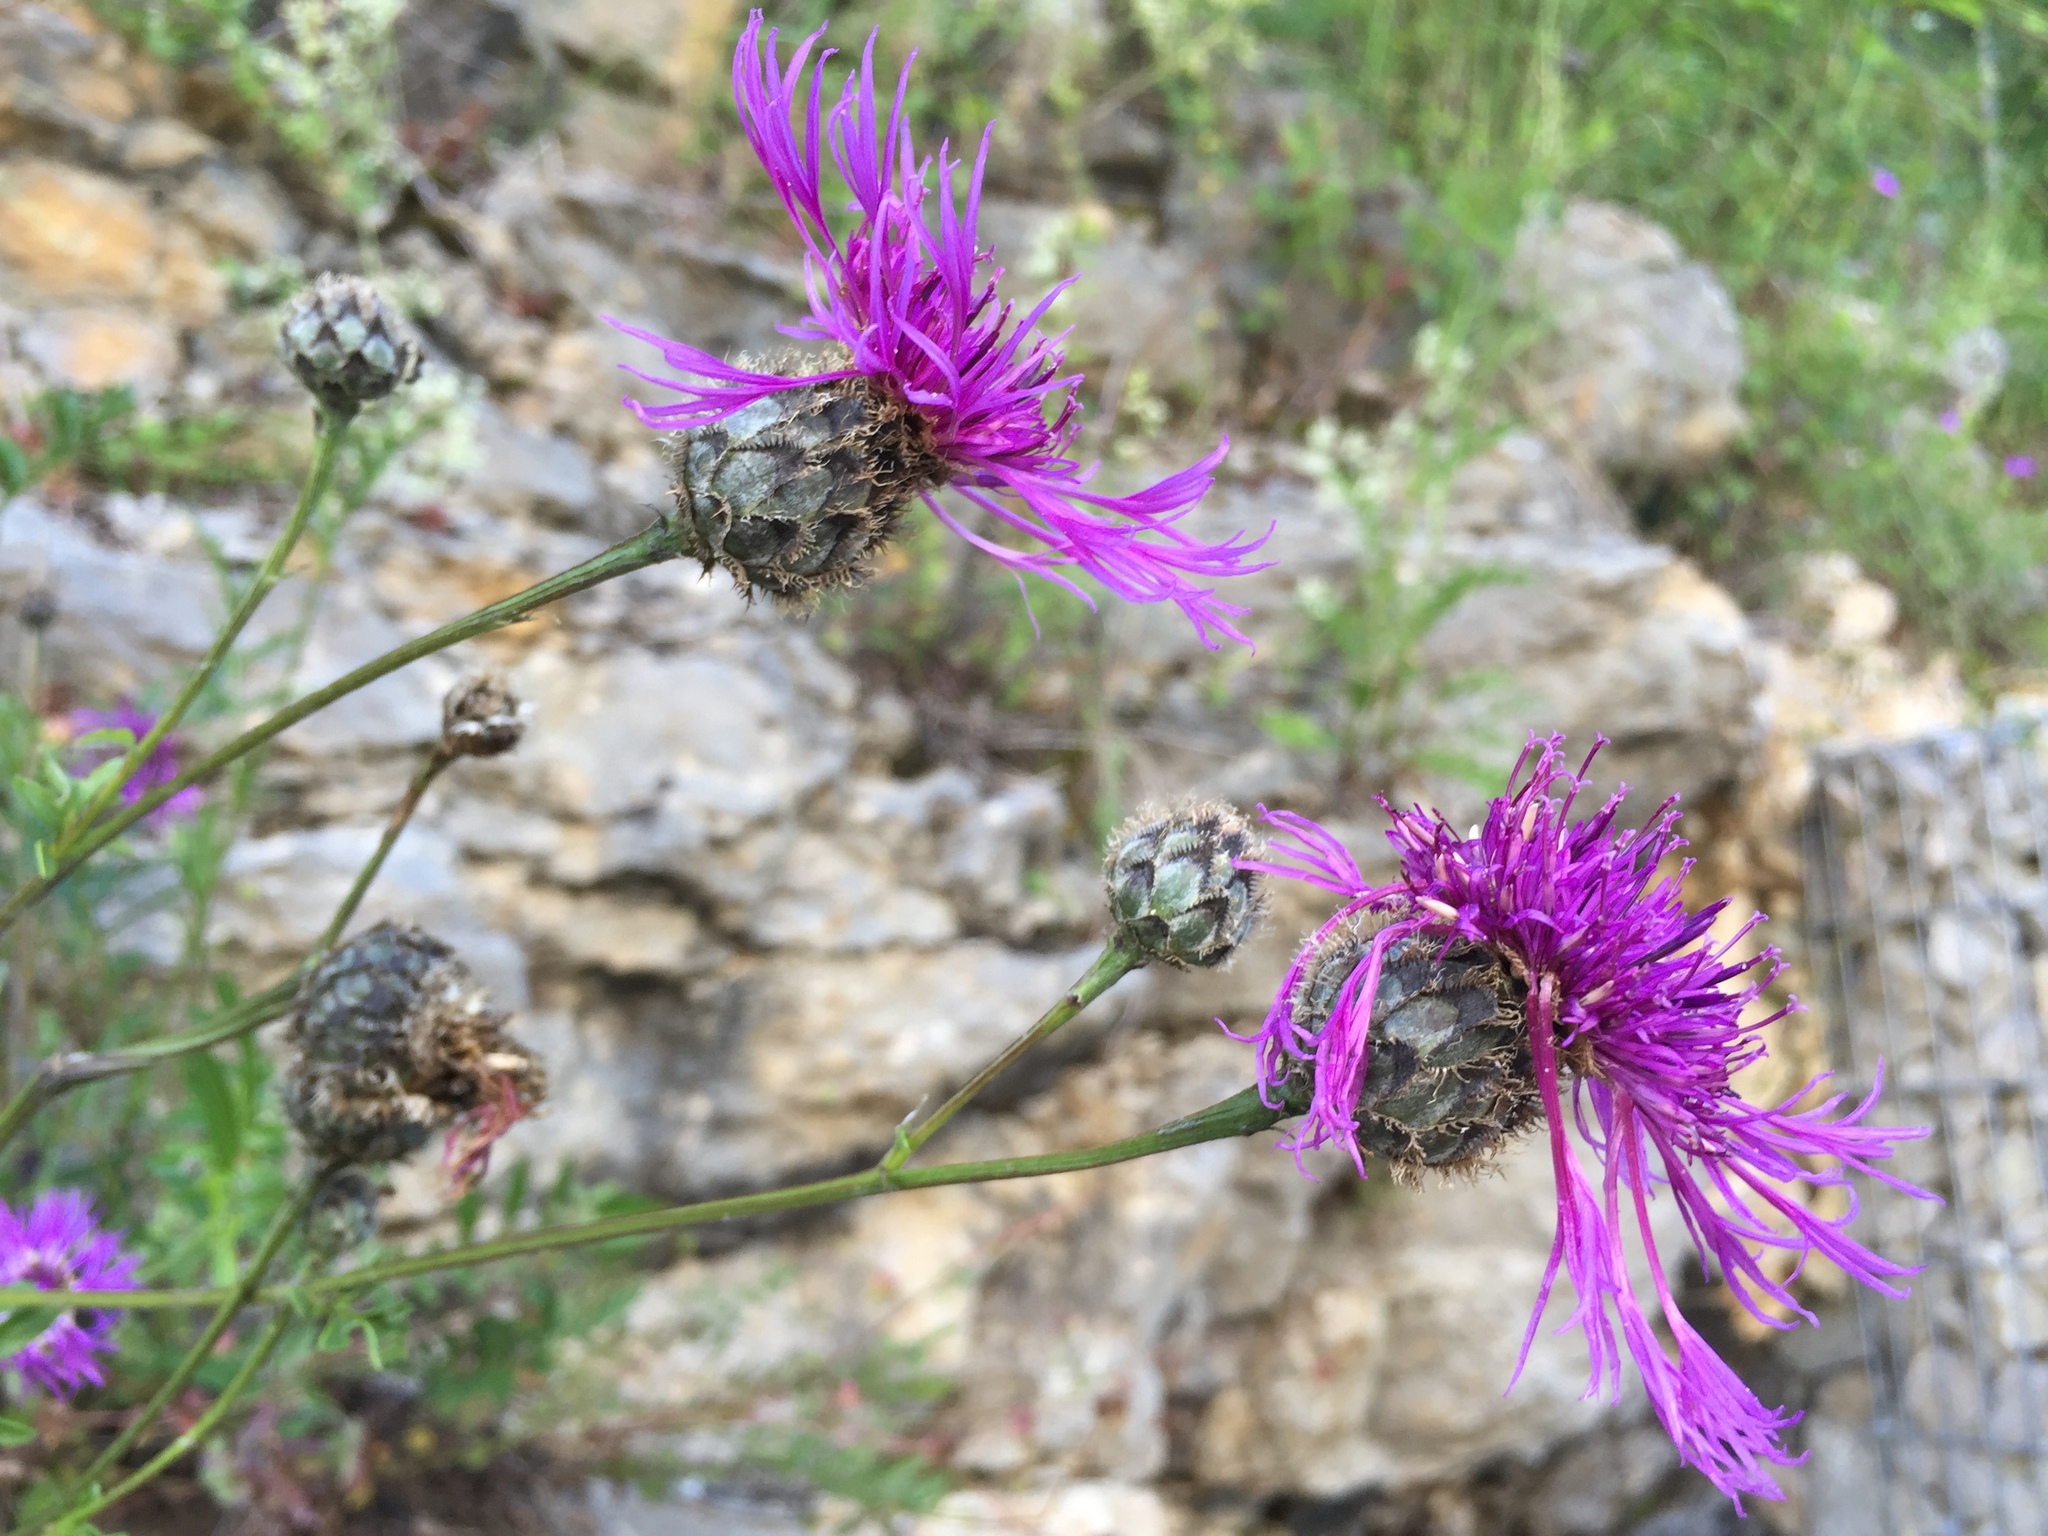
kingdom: Plantae
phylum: Tracheophyta
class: Magnoliopsida
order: Asterales
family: Asteraceae
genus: Centaurea
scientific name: Centaurea scabiosa
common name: Greater knapweed
